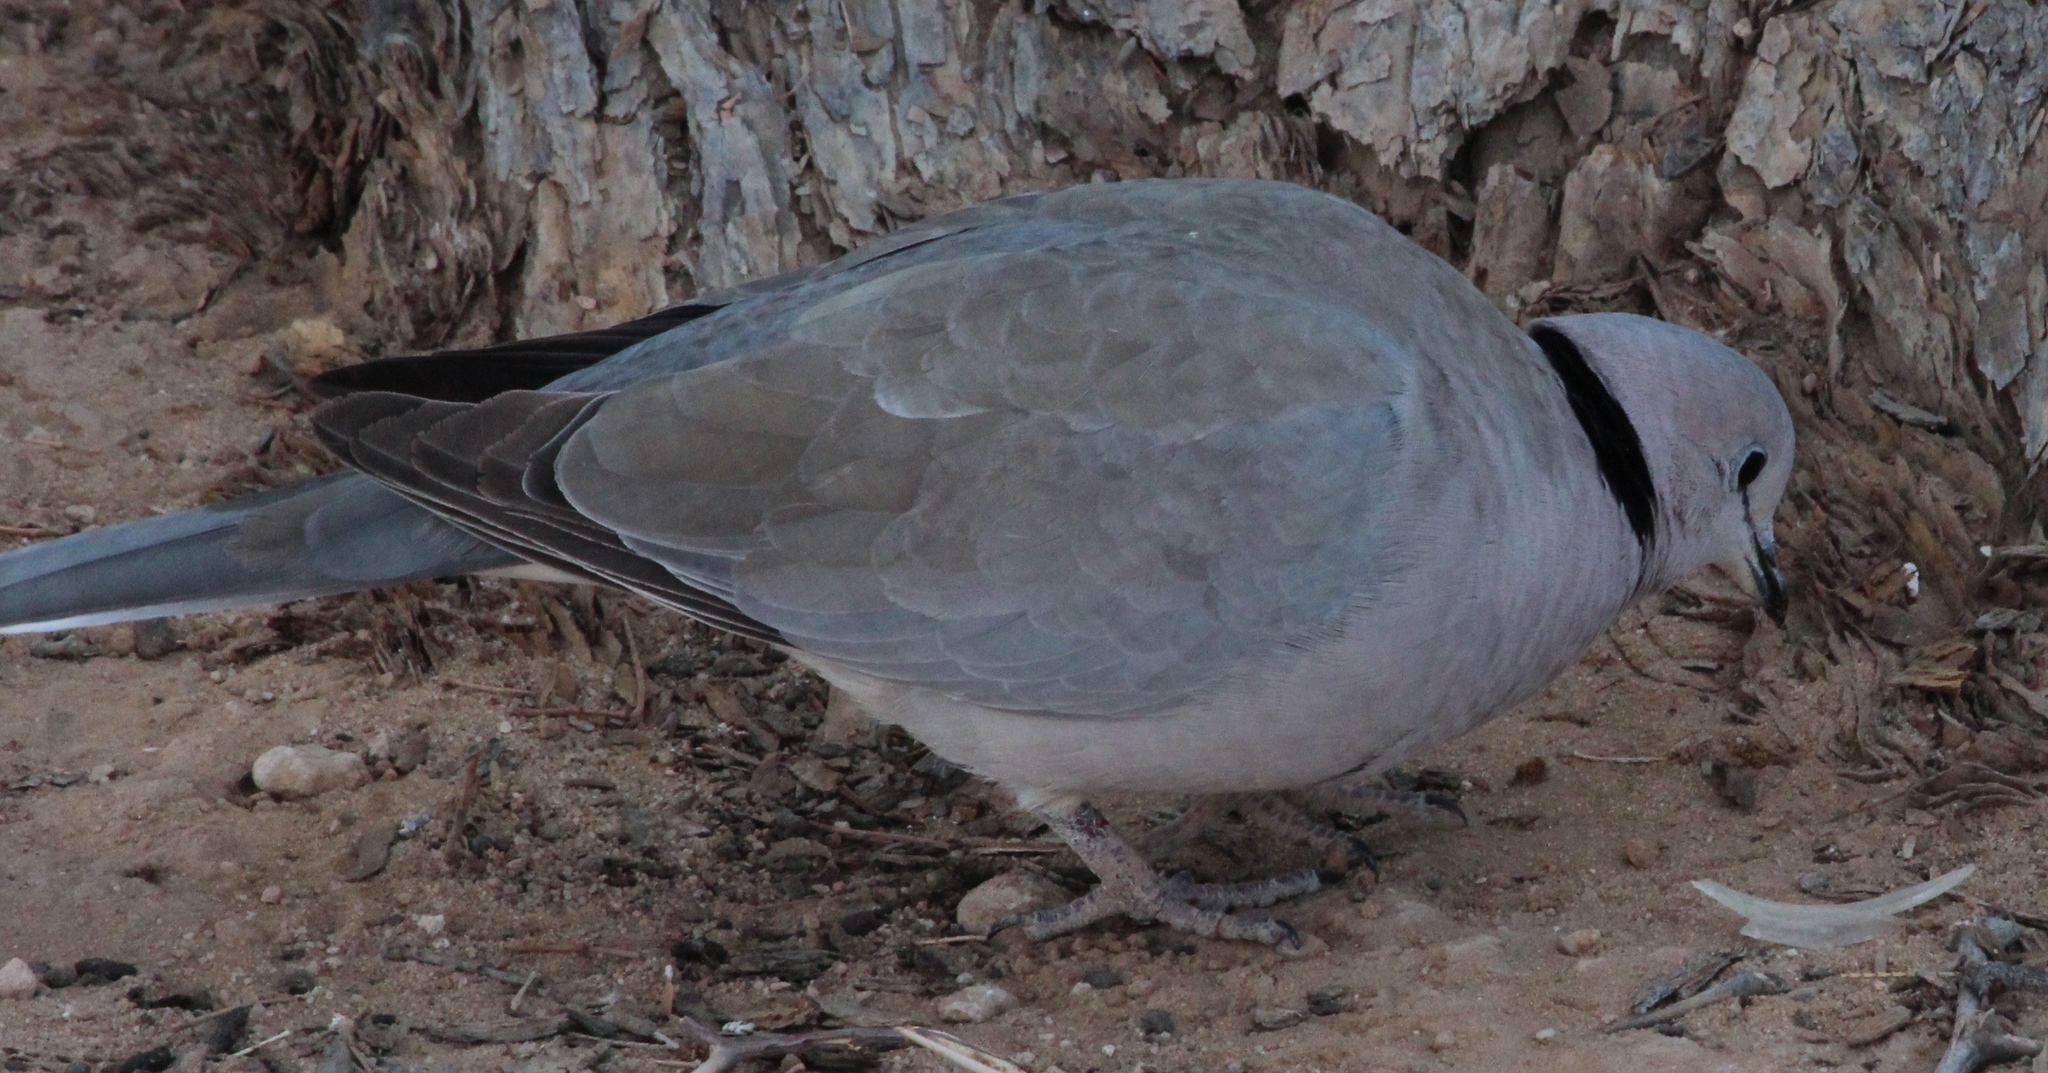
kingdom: Animalia
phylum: Chordata
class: Aves
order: Columbiformes
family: Columbidae
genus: Streptopelia
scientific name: Streptopelia capicola
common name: Ring-necked dove
